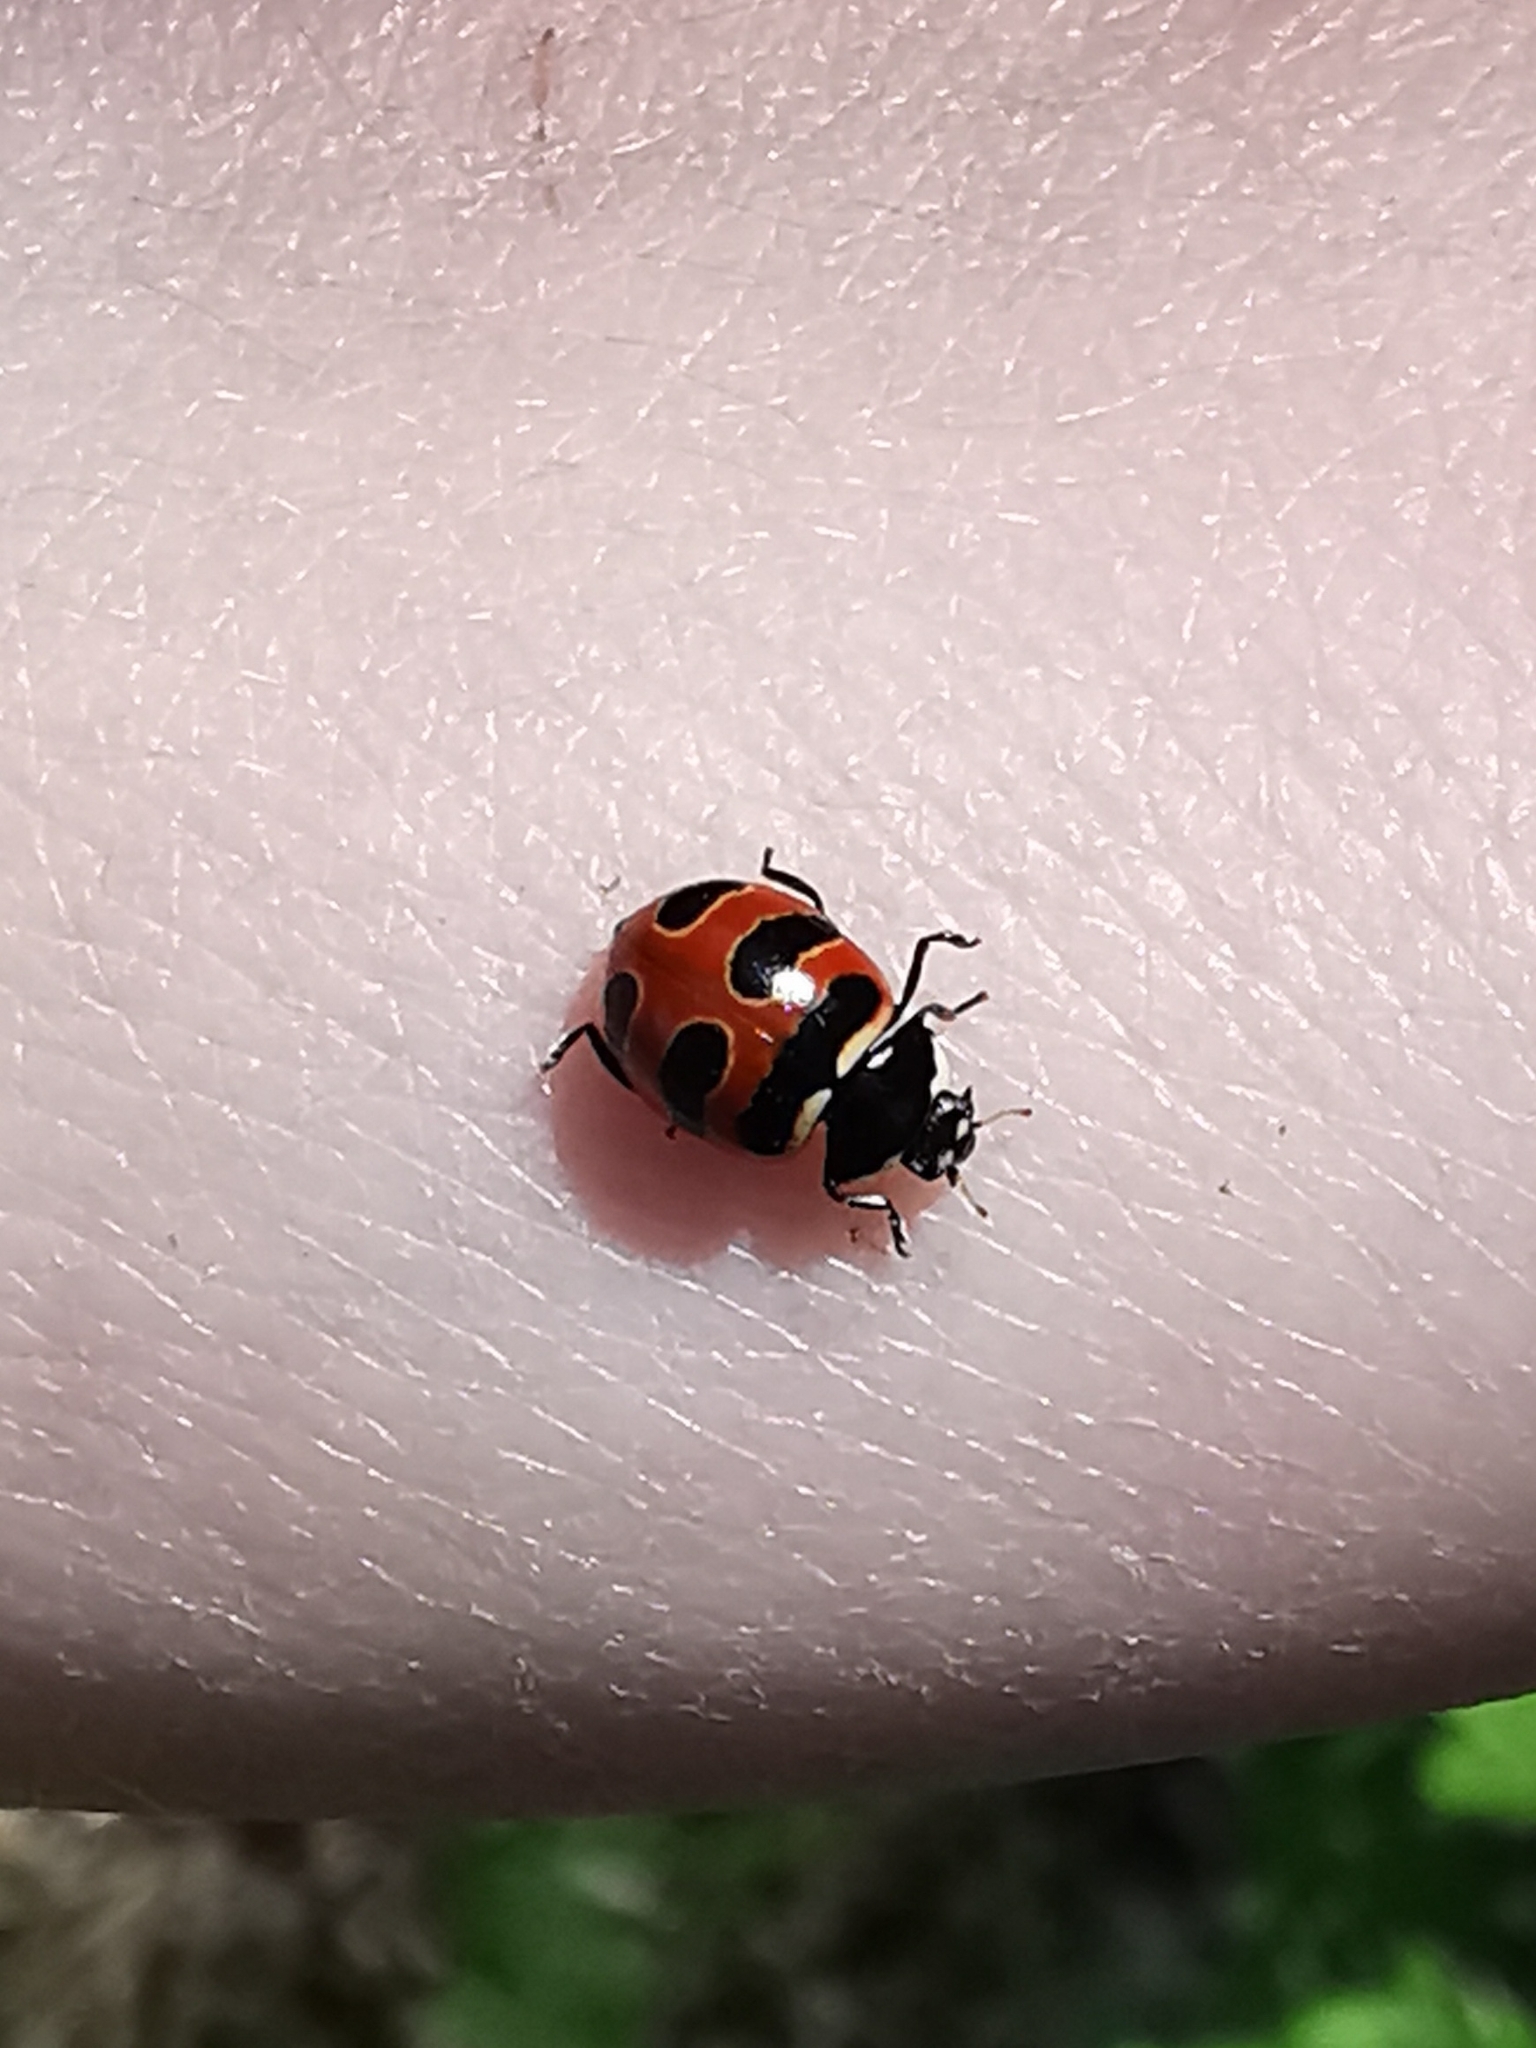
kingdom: Animalia
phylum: Arthropoda
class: Insecta
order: Coleoptera
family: Coccinellidae
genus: Coccinella
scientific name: Coccinella trifasciata
